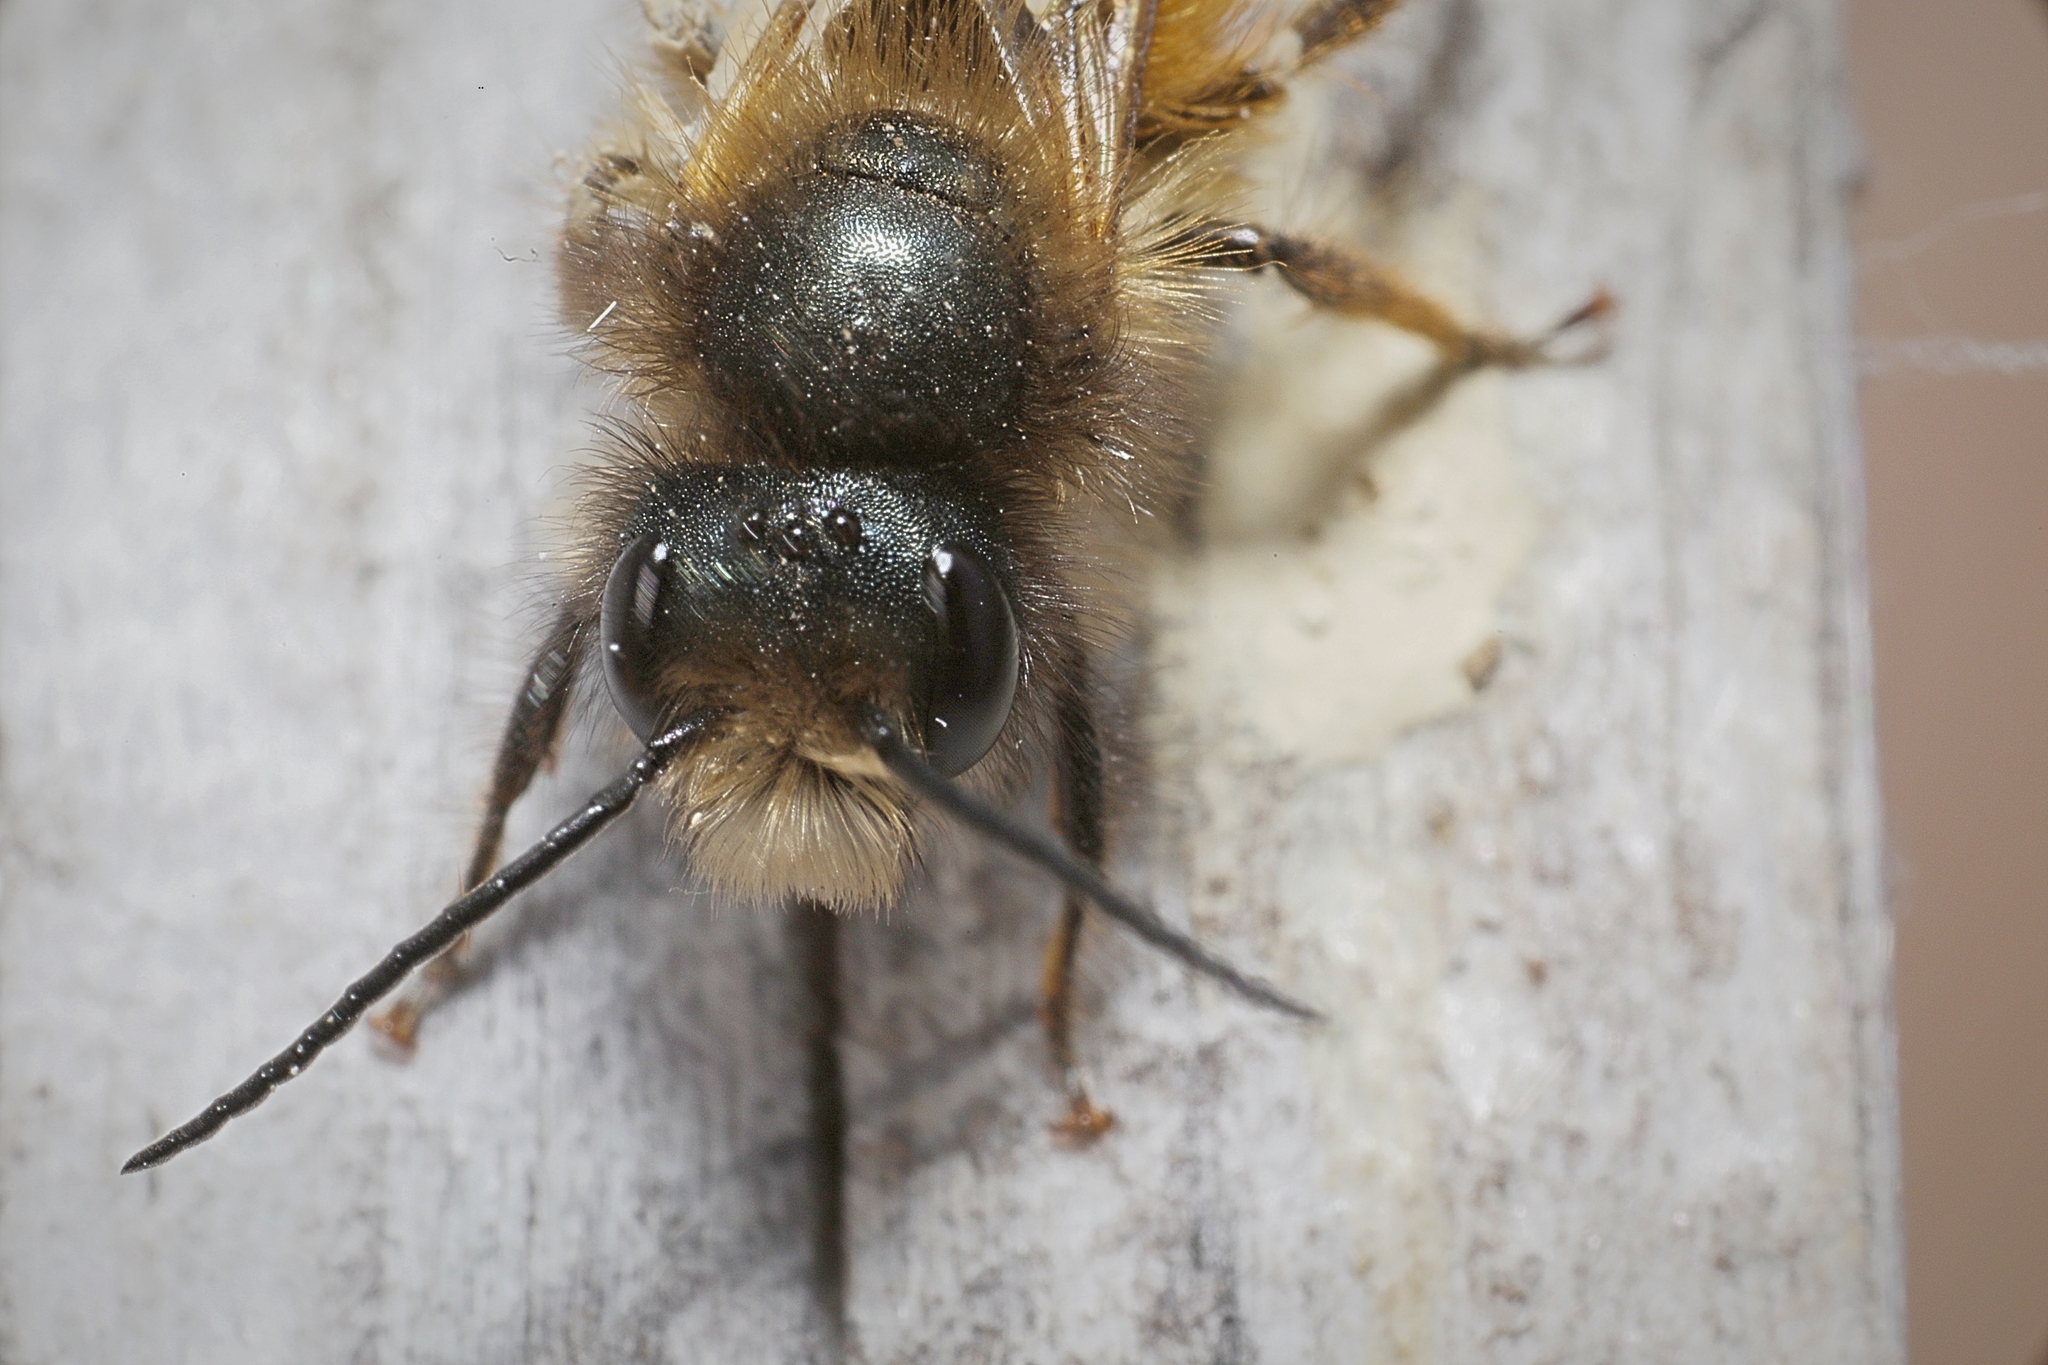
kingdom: Animalia
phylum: Arthropoda
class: Insecta
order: Hymenoptera
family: Megachilidae
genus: Osmia
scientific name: Osmia bicornis
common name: Red mason bee
